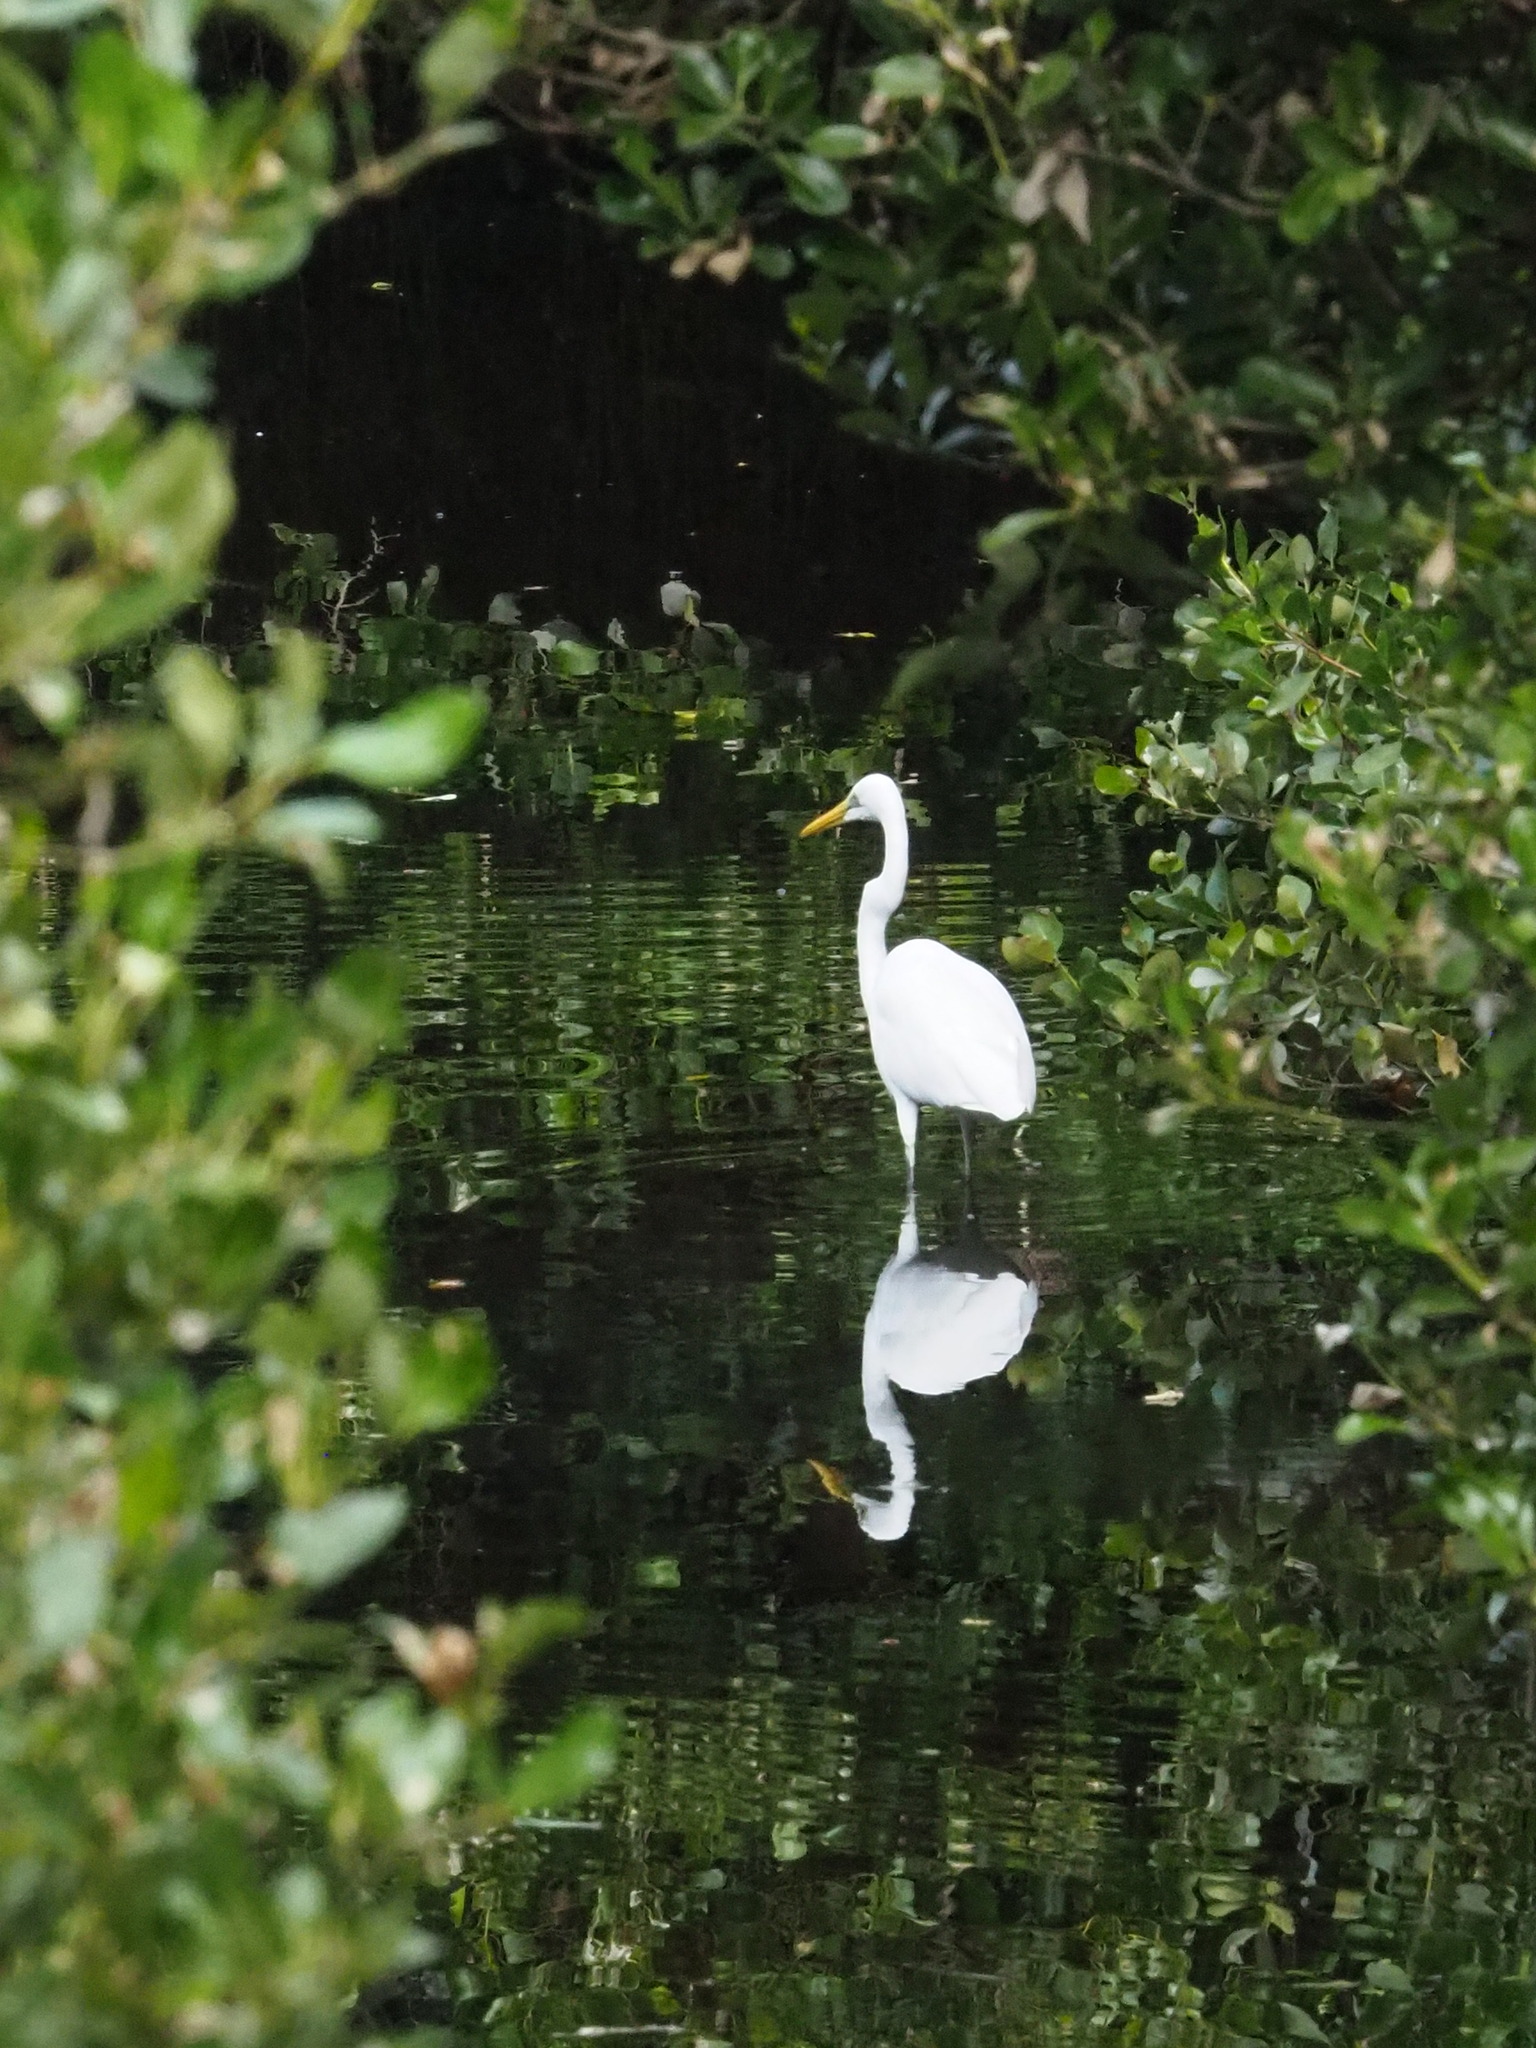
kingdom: Animalia
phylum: Chordata
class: Aves
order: Pelecaniformes
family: Ardeidae
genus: Ardea
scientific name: Ardea alba
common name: Great egret
